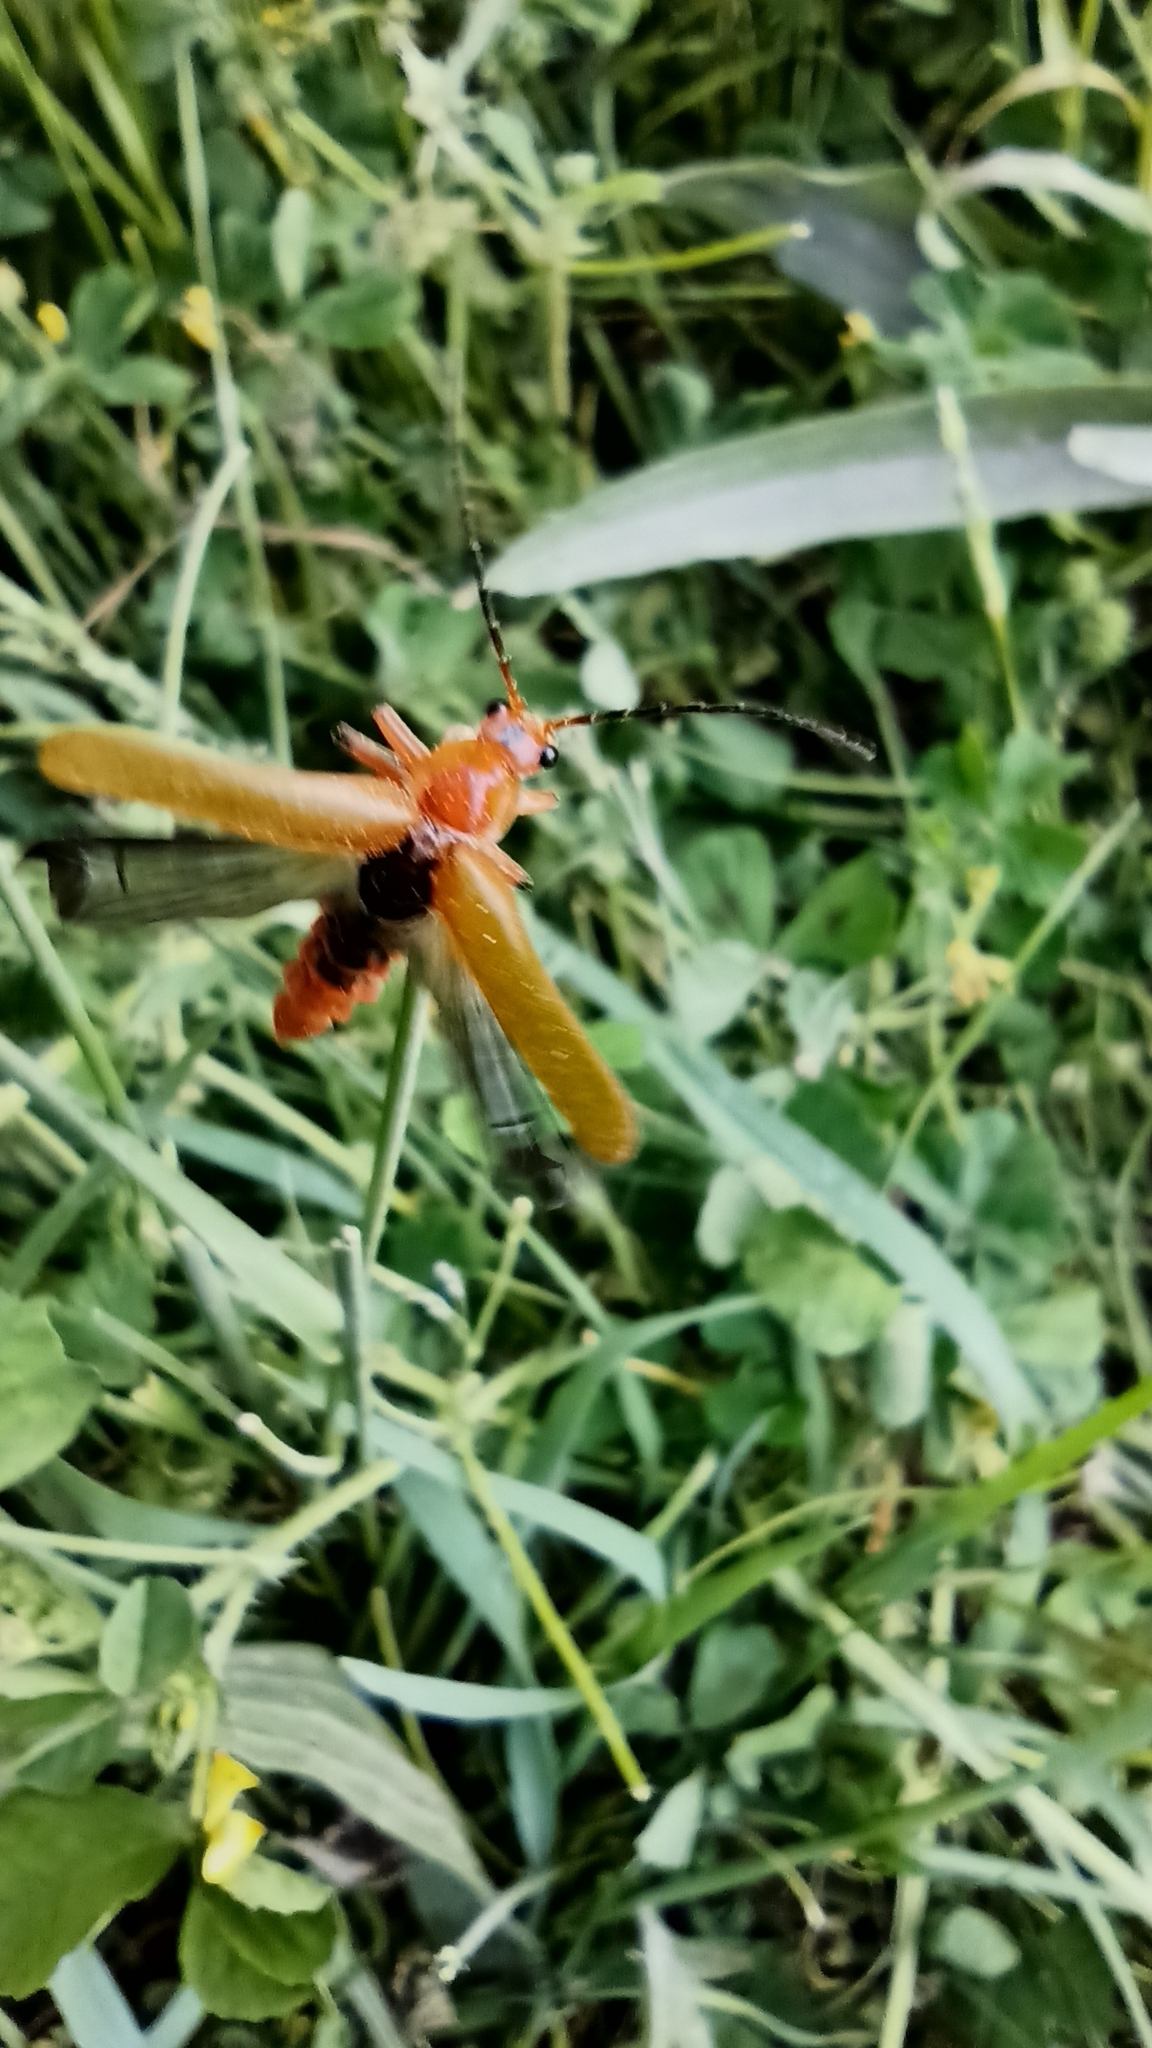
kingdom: Animalia
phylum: Arthropoda
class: Insecta
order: Coleoptera
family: Cantharidae
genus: Cantharis
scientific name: Cantharis livida
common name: Livid soldier beetle
